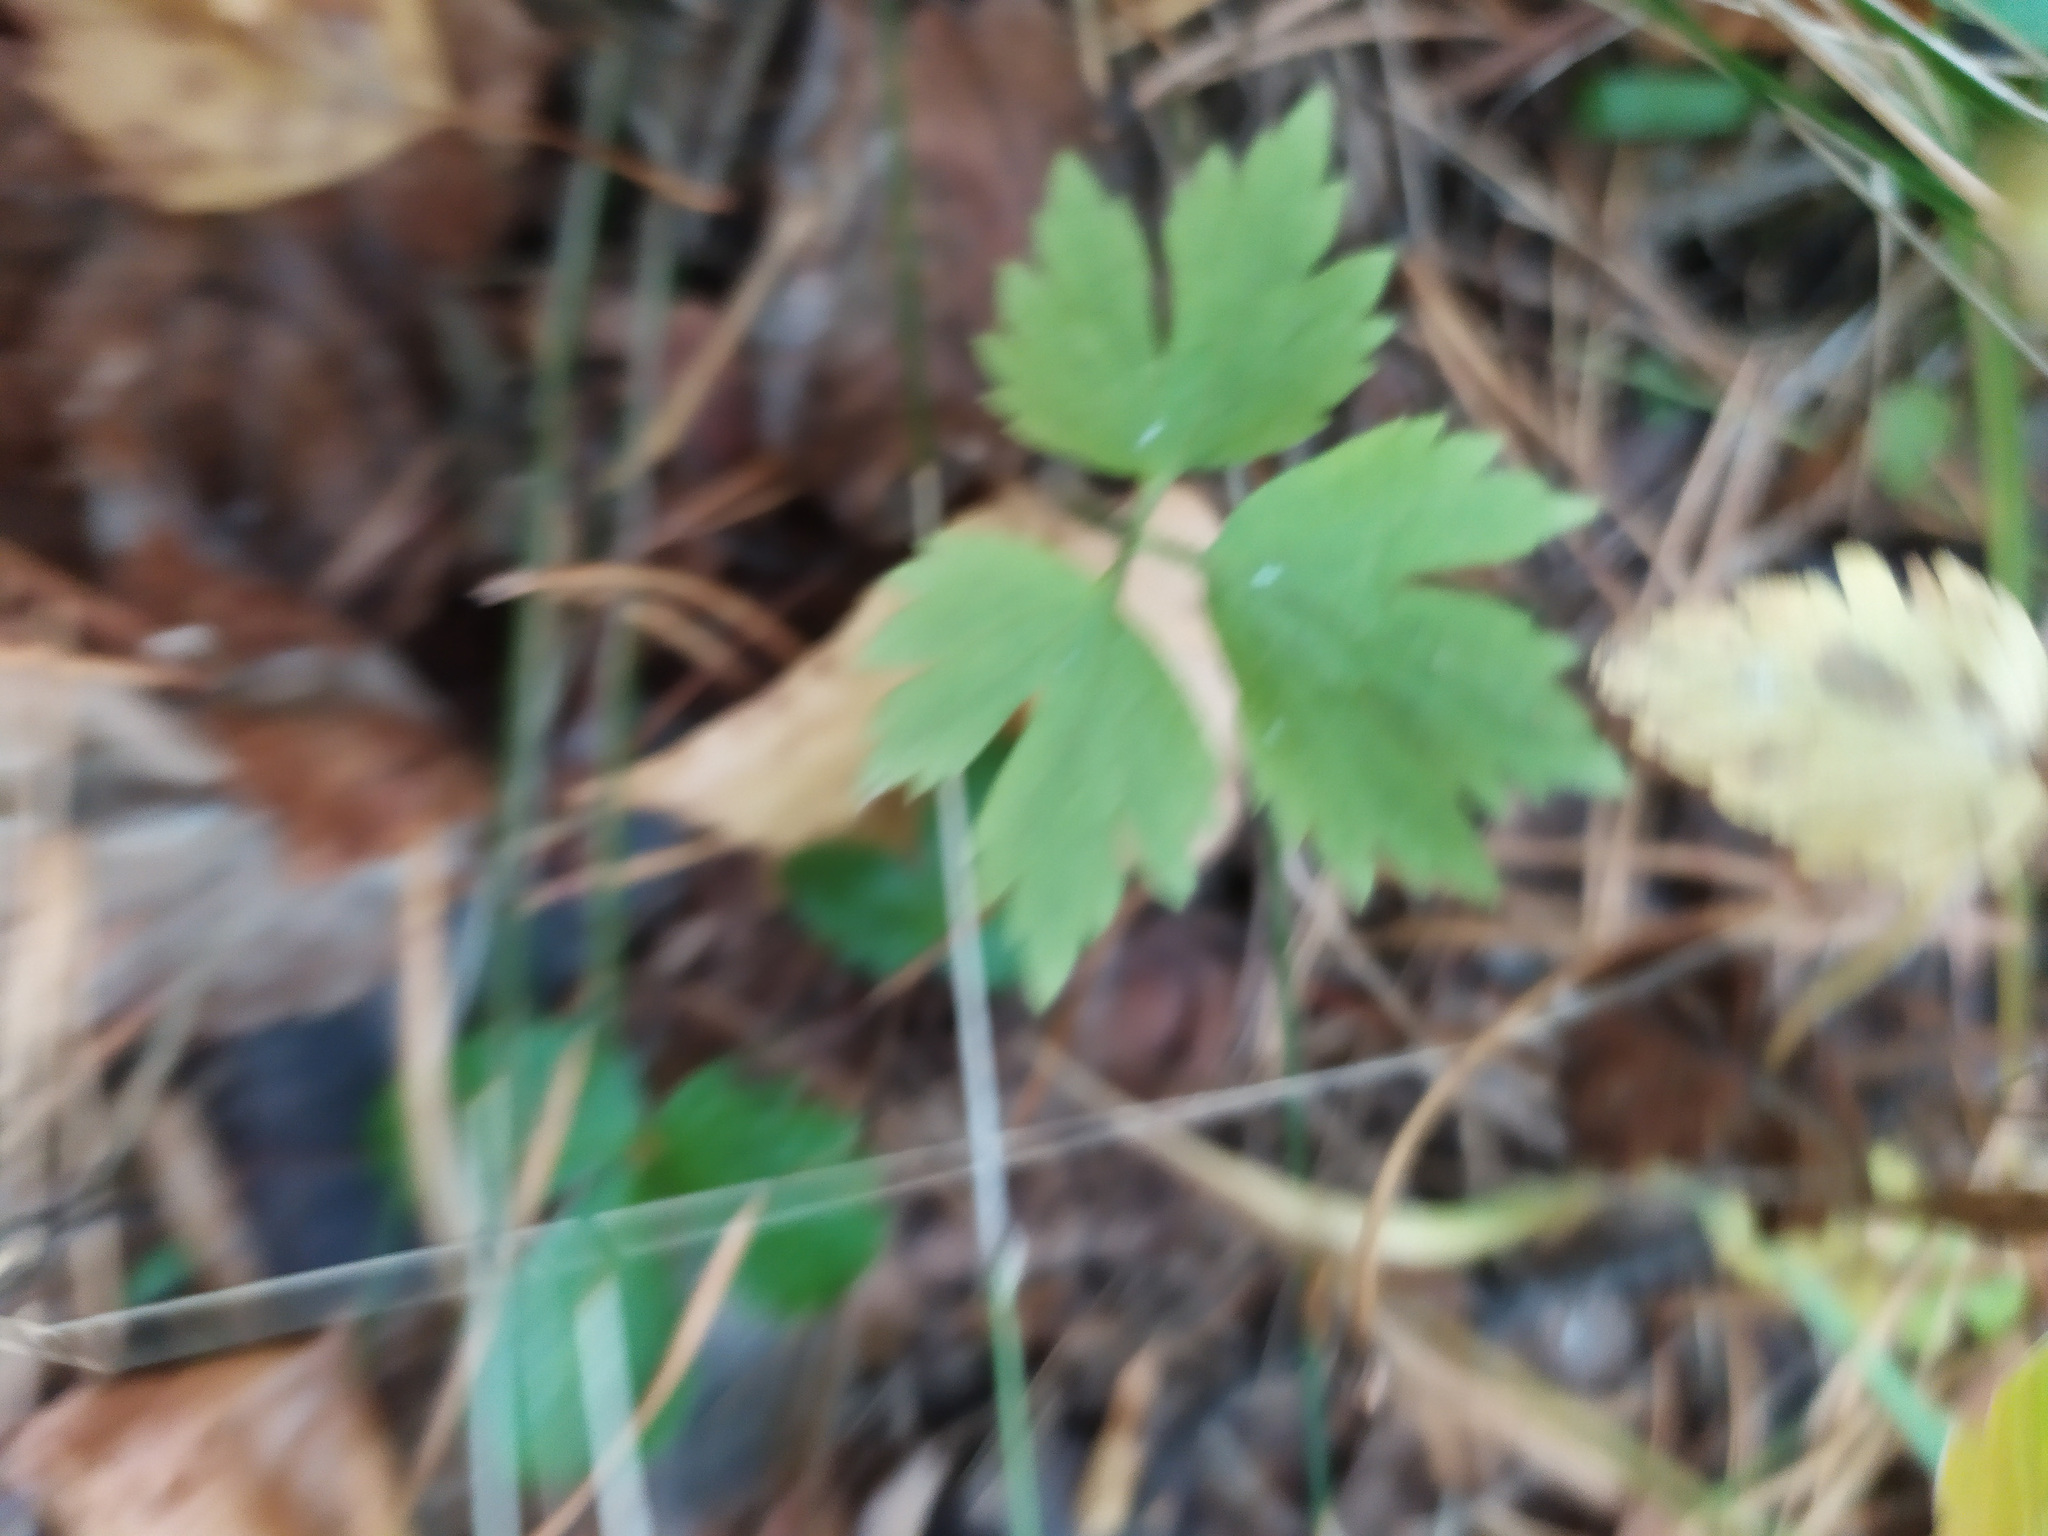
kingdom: Plantae
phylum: Tracheophyta
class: Magnoliopsida
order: Ranunculales
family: Ranunculaceae
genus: Ranunculus
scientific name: Ranunculus repens
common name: Creeping buttercup
